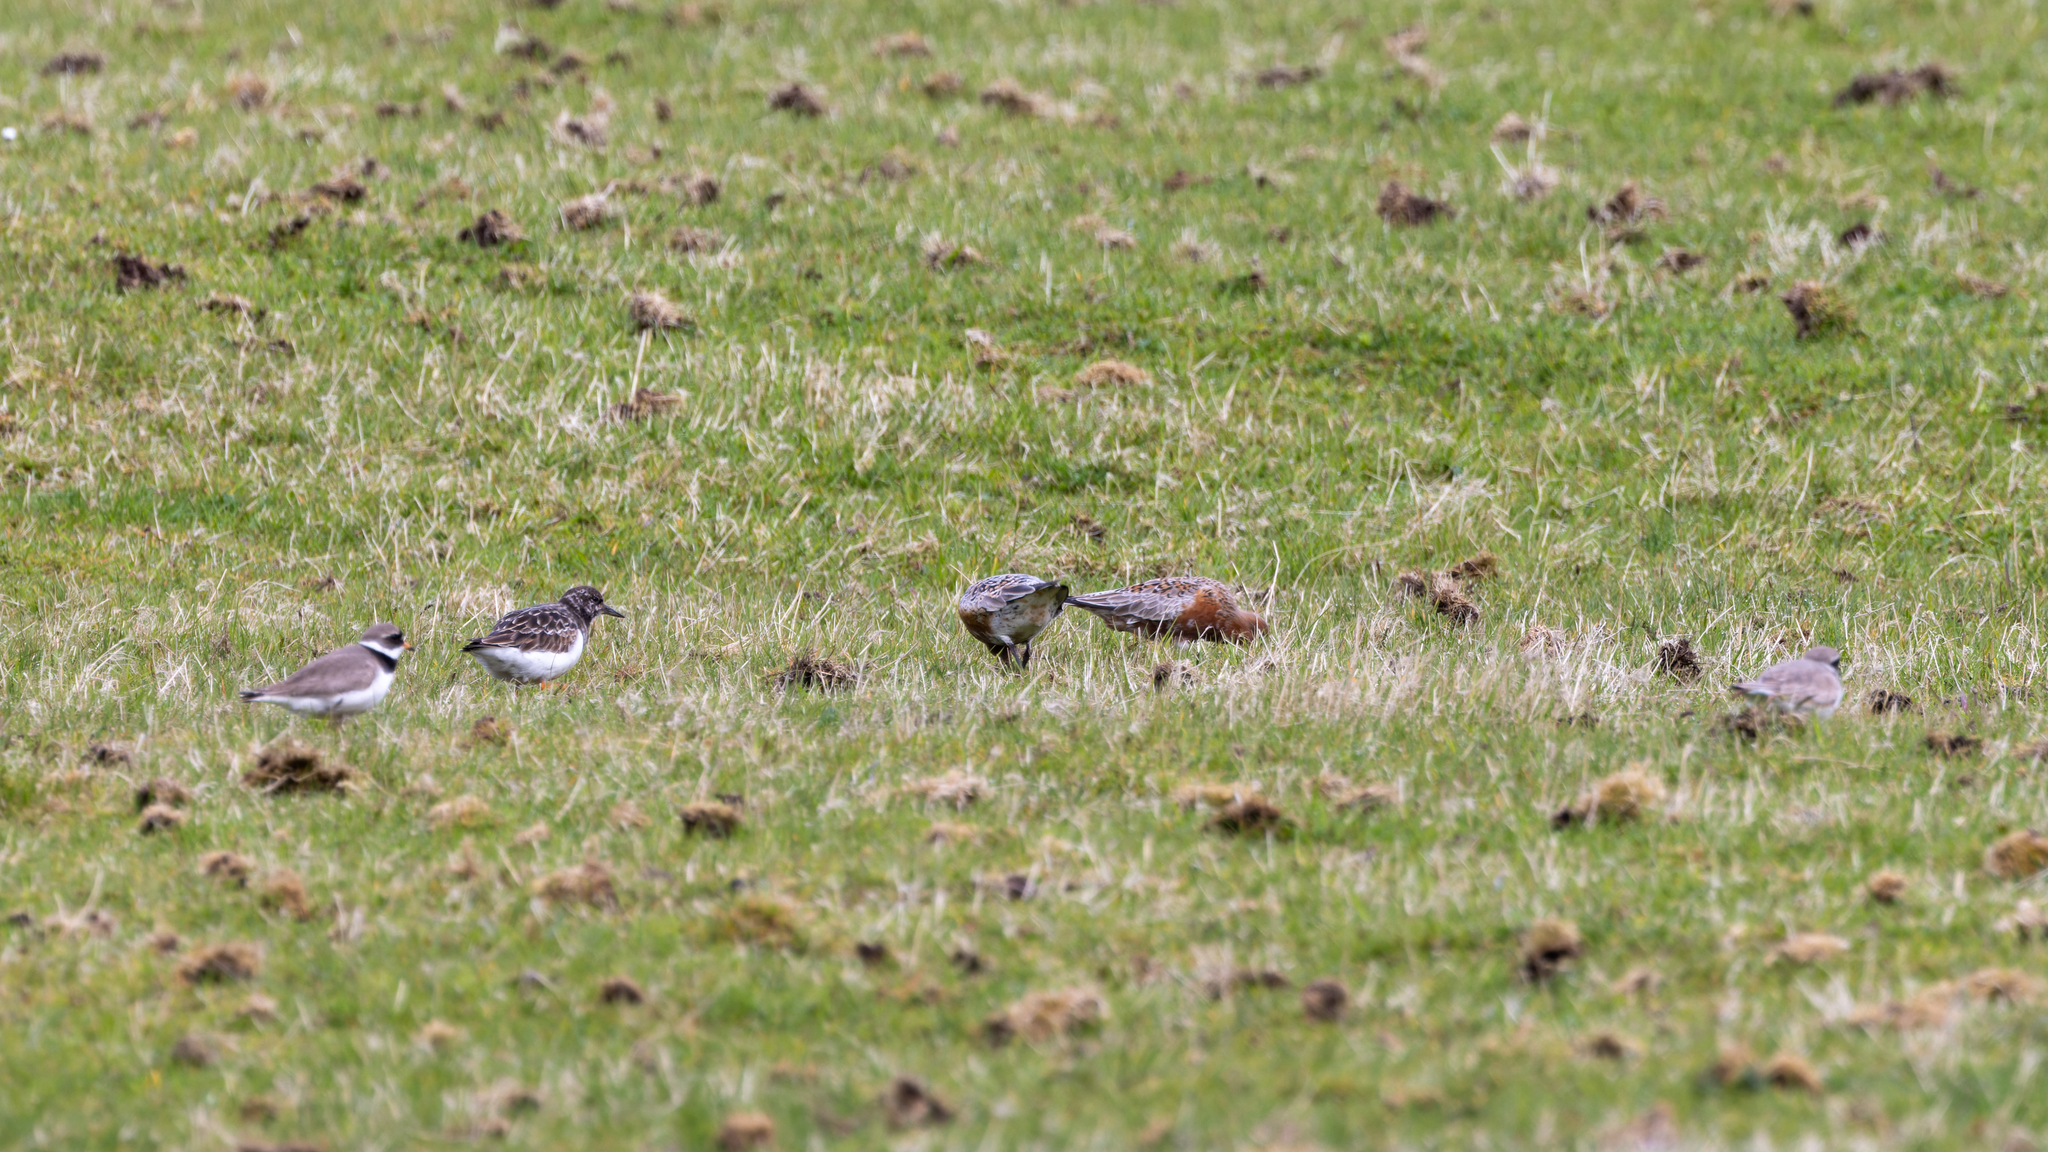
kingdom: Animalia
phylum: Chordata
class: Aves
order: Charadriiformes
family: Scolopacidae
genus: Calidris
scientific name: Calidris canutus
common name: Red knot
